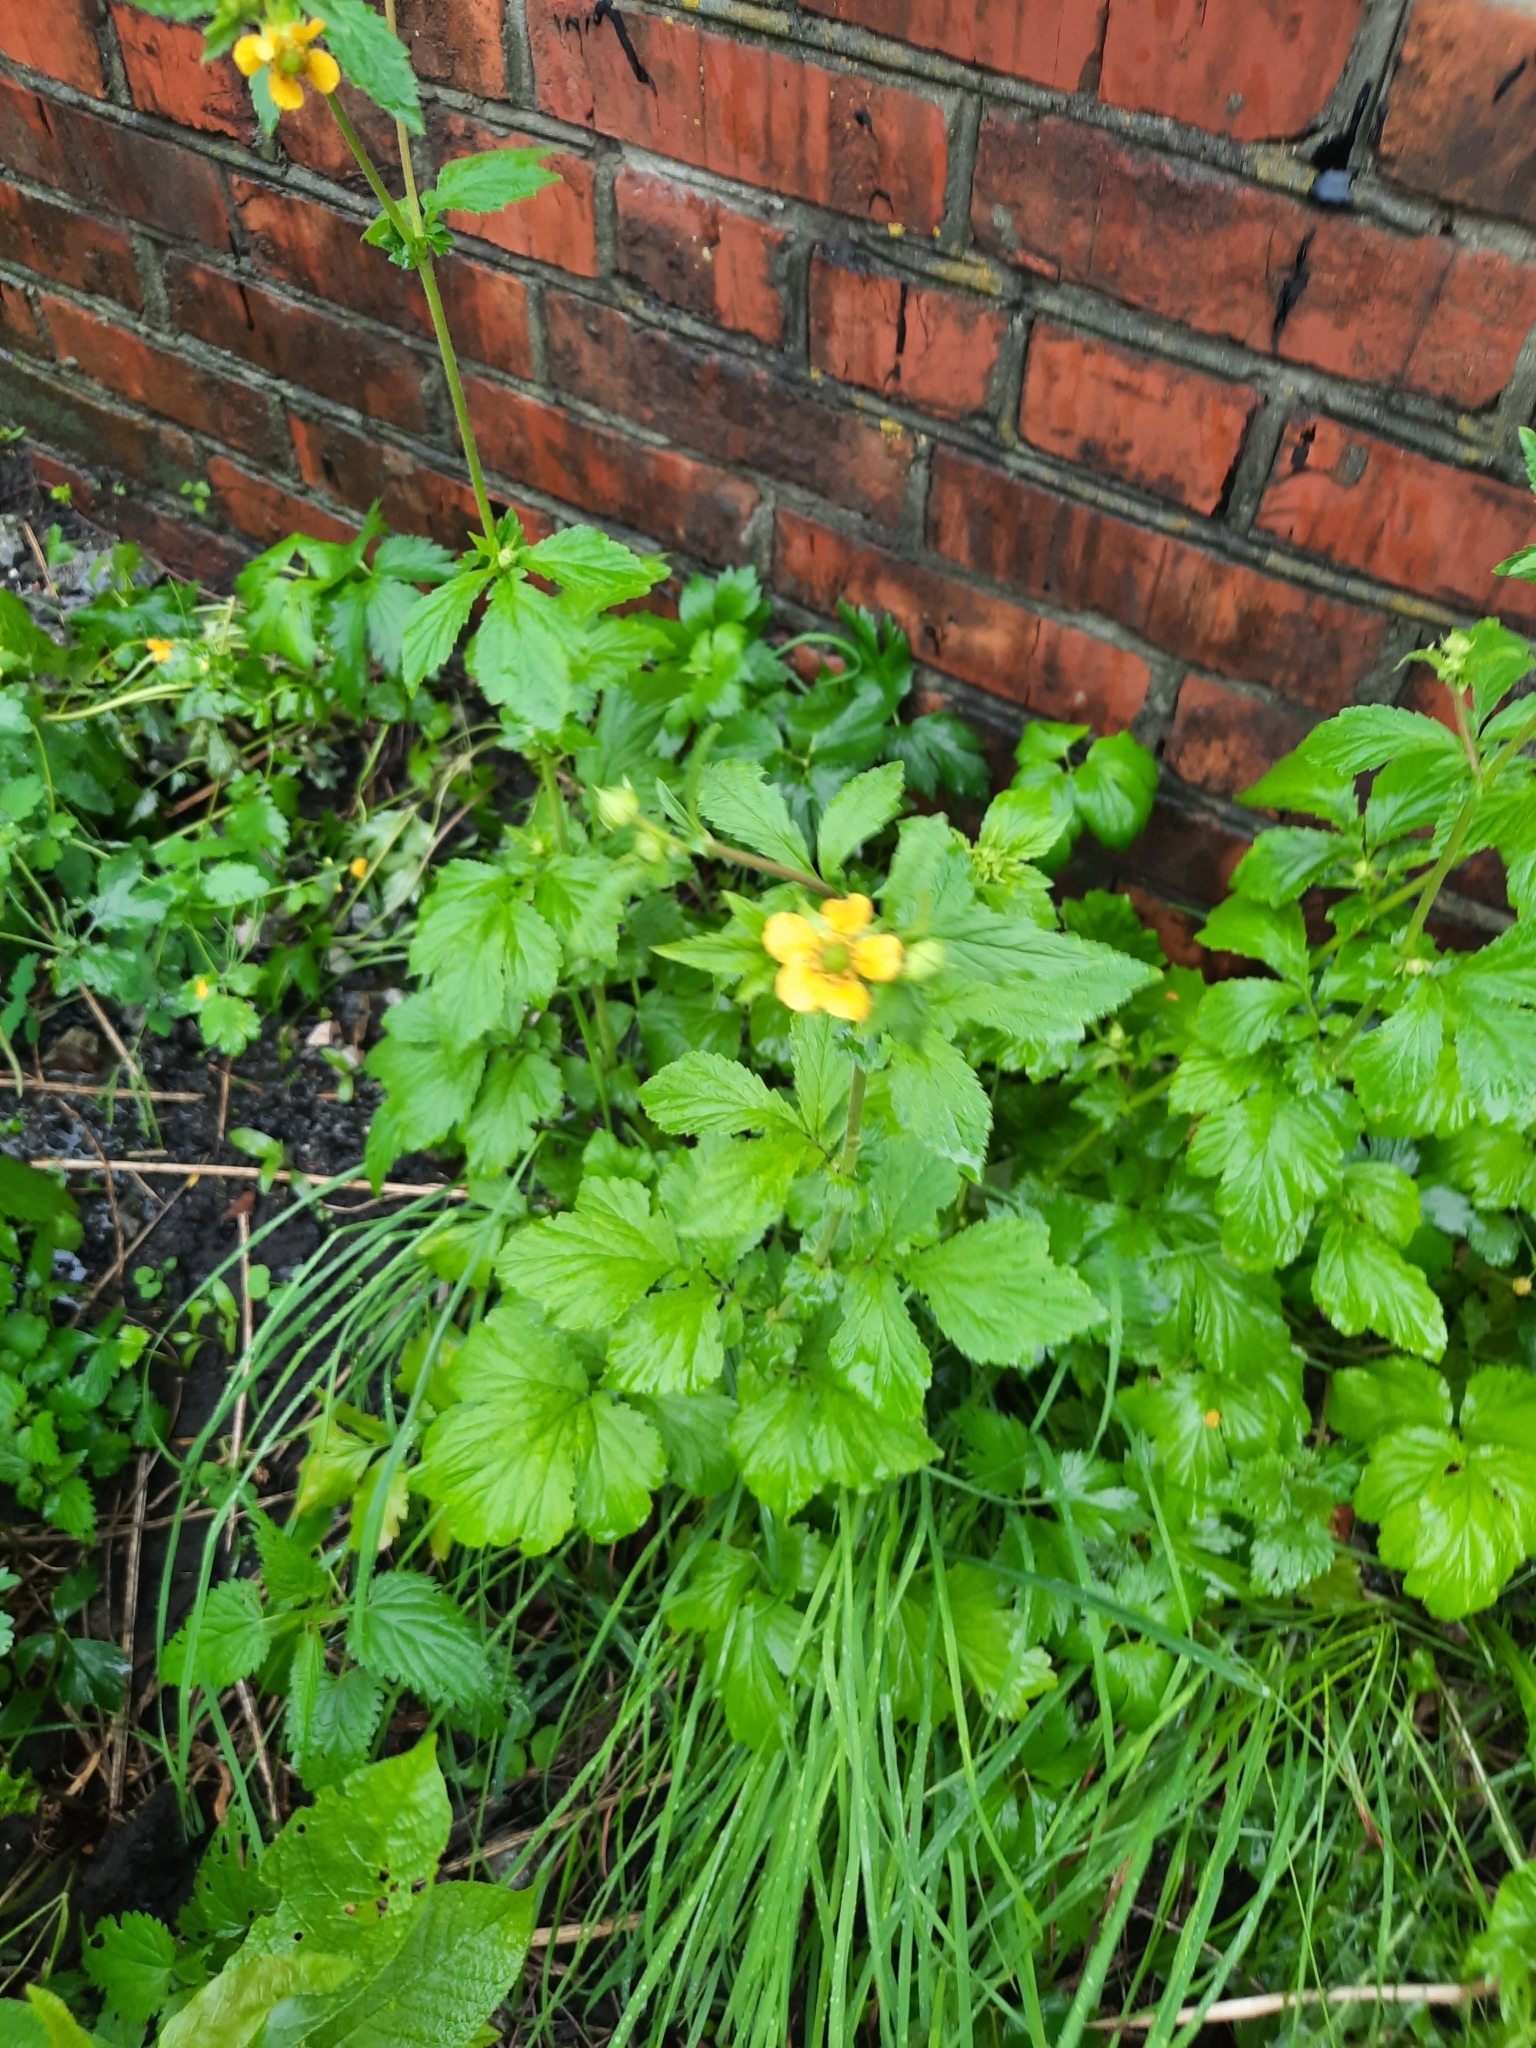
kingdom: Plantae
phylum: Tracheophyta
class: Magnoliopsida
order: Rosales
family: Rosaceae
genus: Geum
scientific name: Geum aleppicum
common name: Yellow avens
